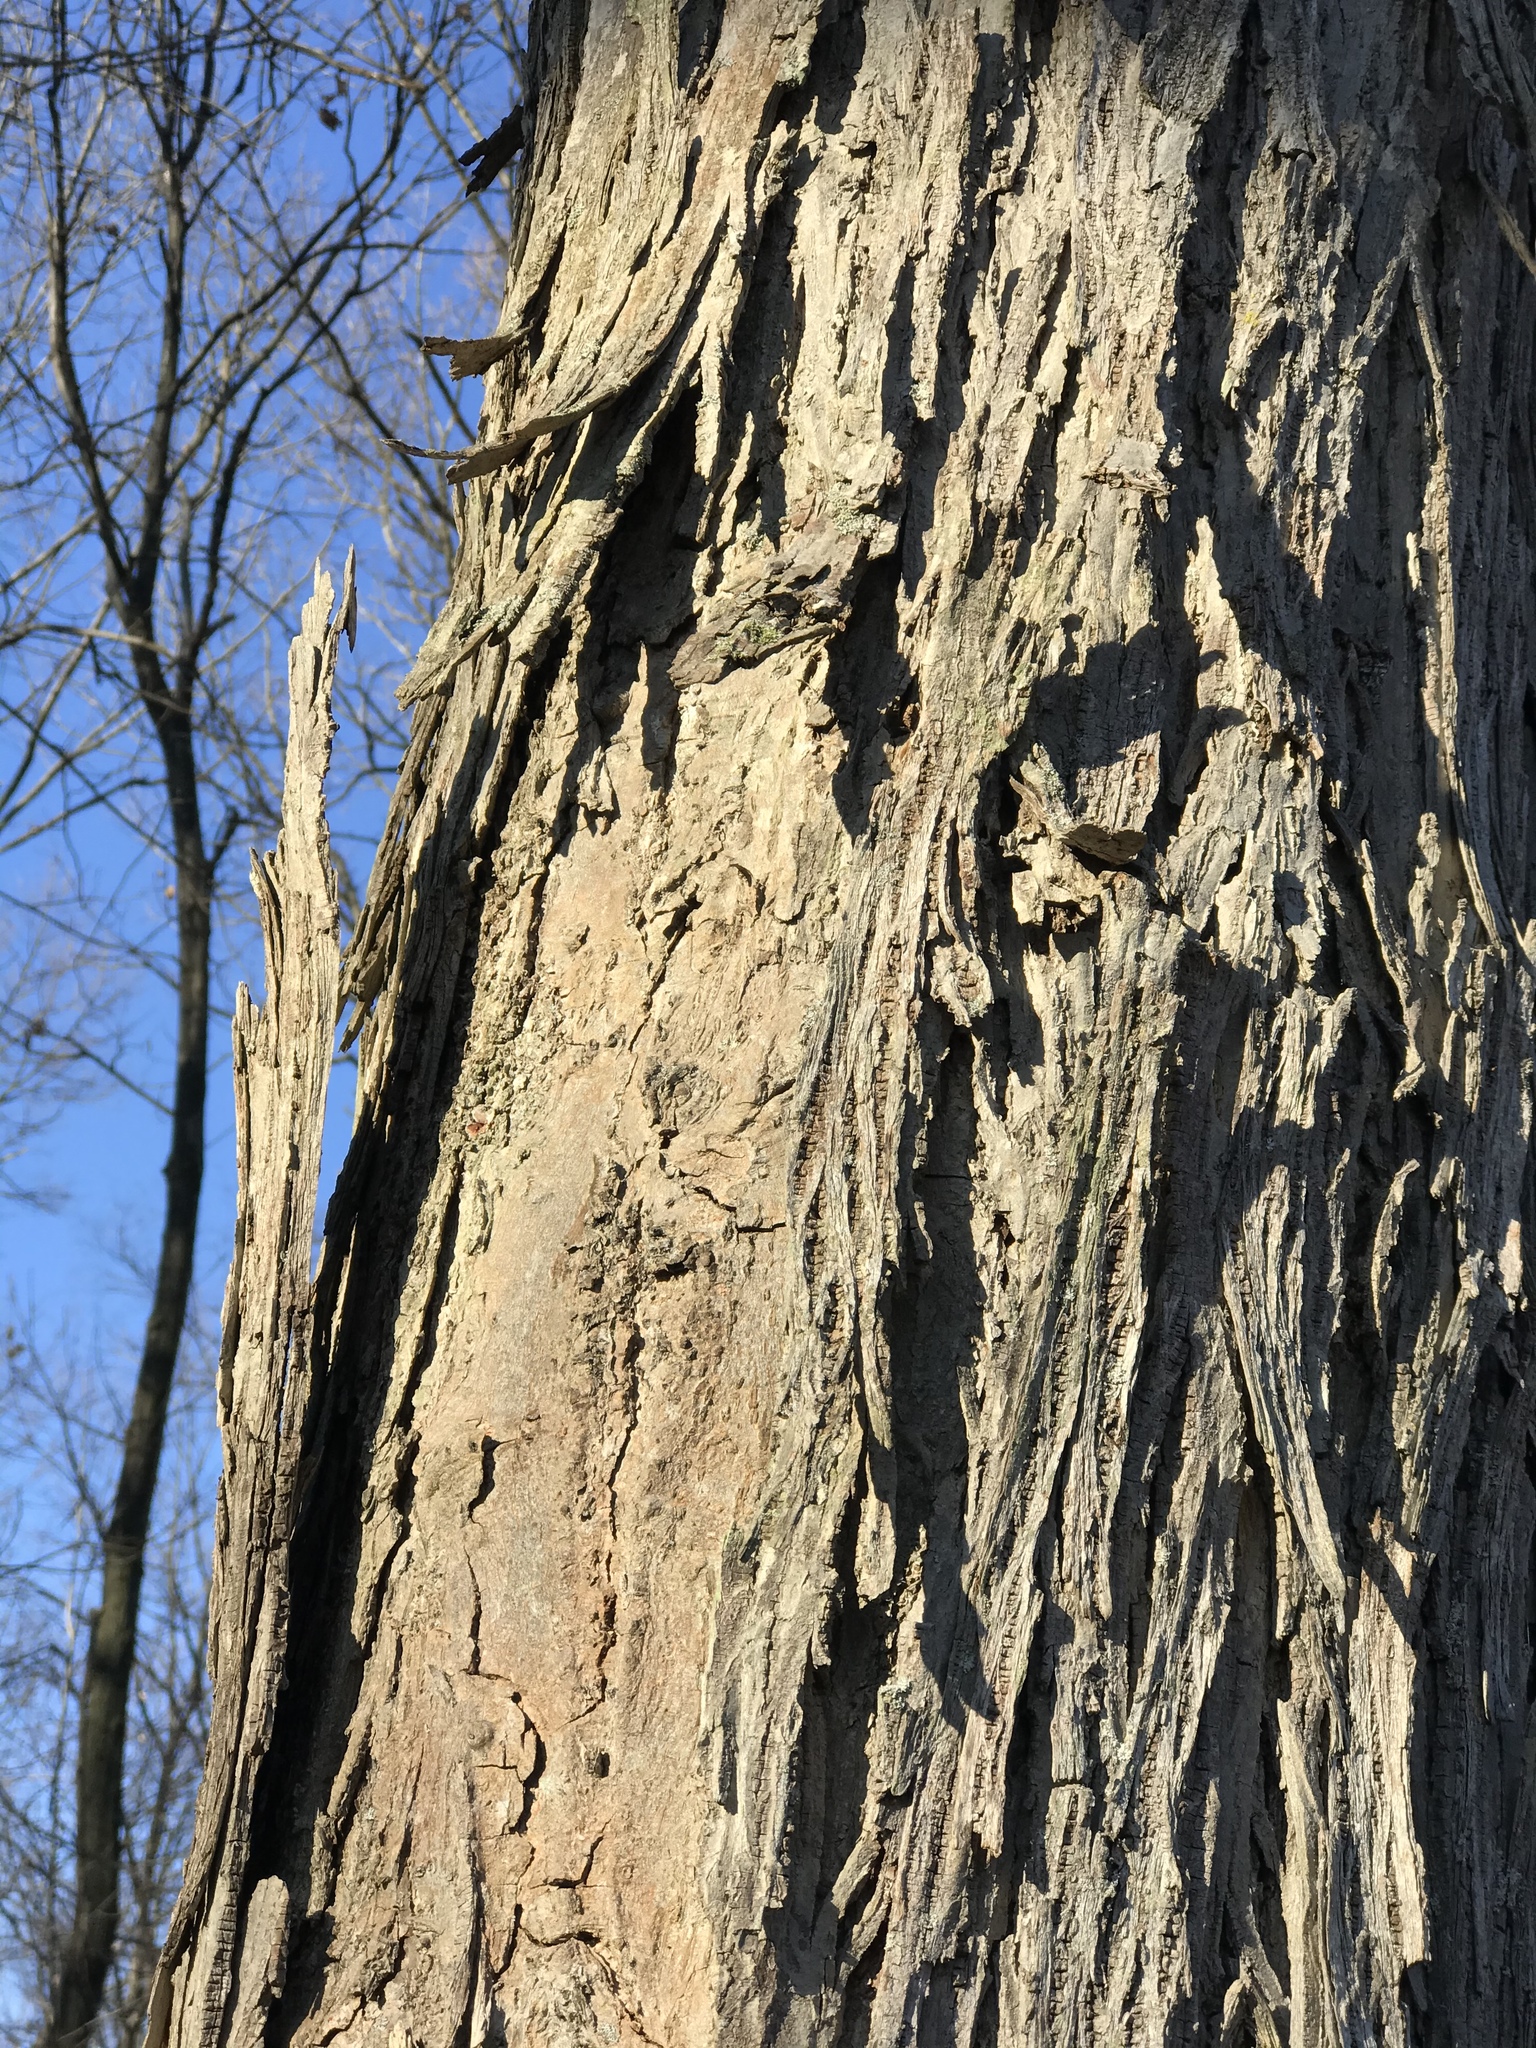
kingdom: Plantae
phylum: Tracheophyta
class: Magnoliopsida
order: Fagales
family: Juglandaceae
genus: Carya
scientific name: Carya ovata
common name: Shagbark hickory
